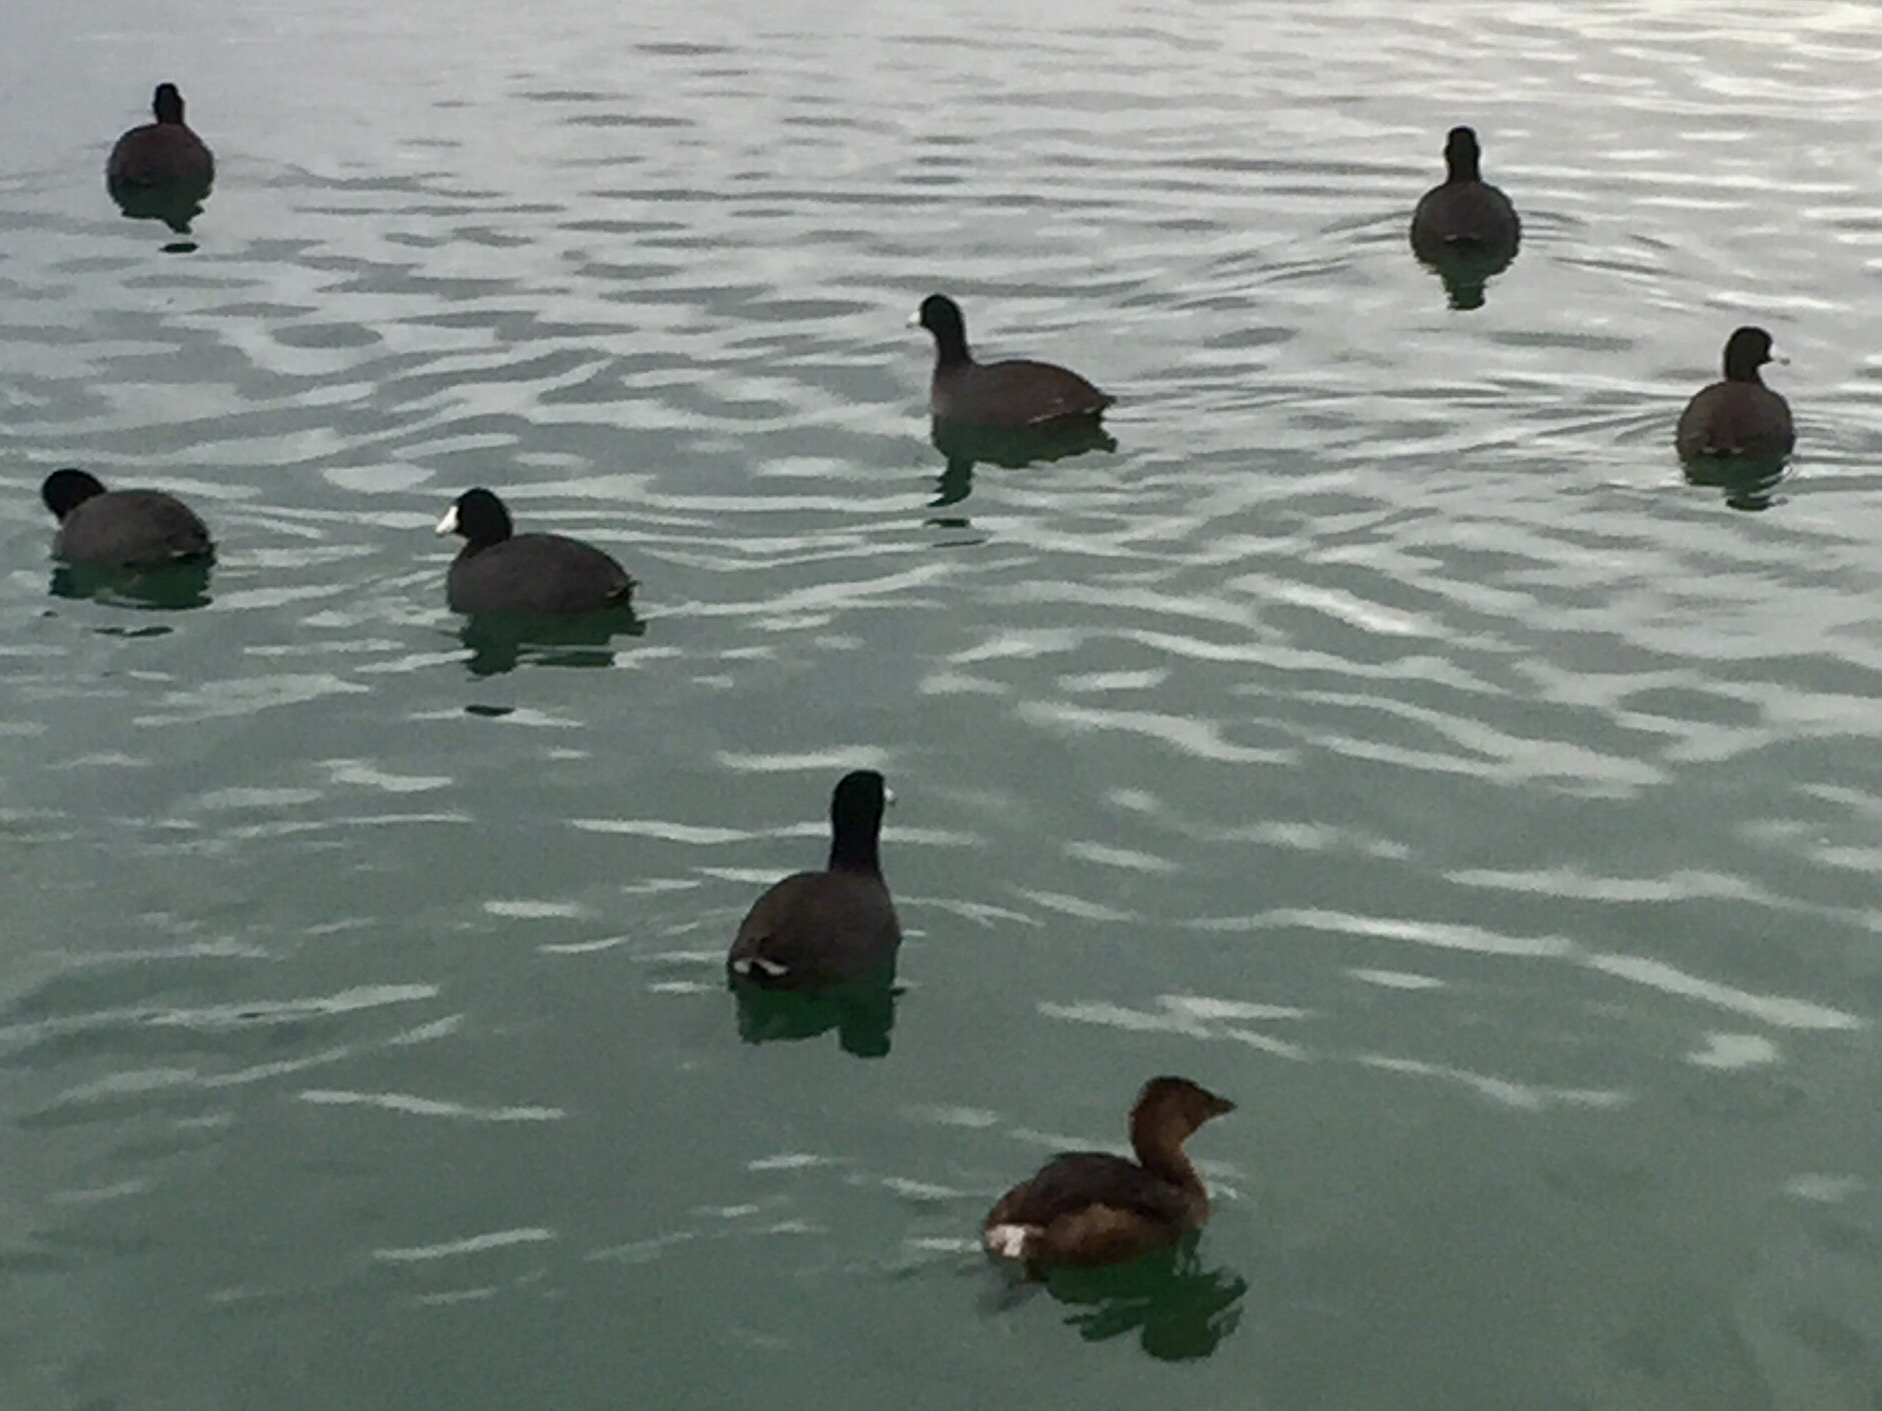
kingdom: Animalia
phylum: Chordata
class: Aves
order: Podicipediformes
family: Podicipedidae
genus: Podilymbus
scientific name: Podilymbus podiceps
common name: Pied-billed grebe
